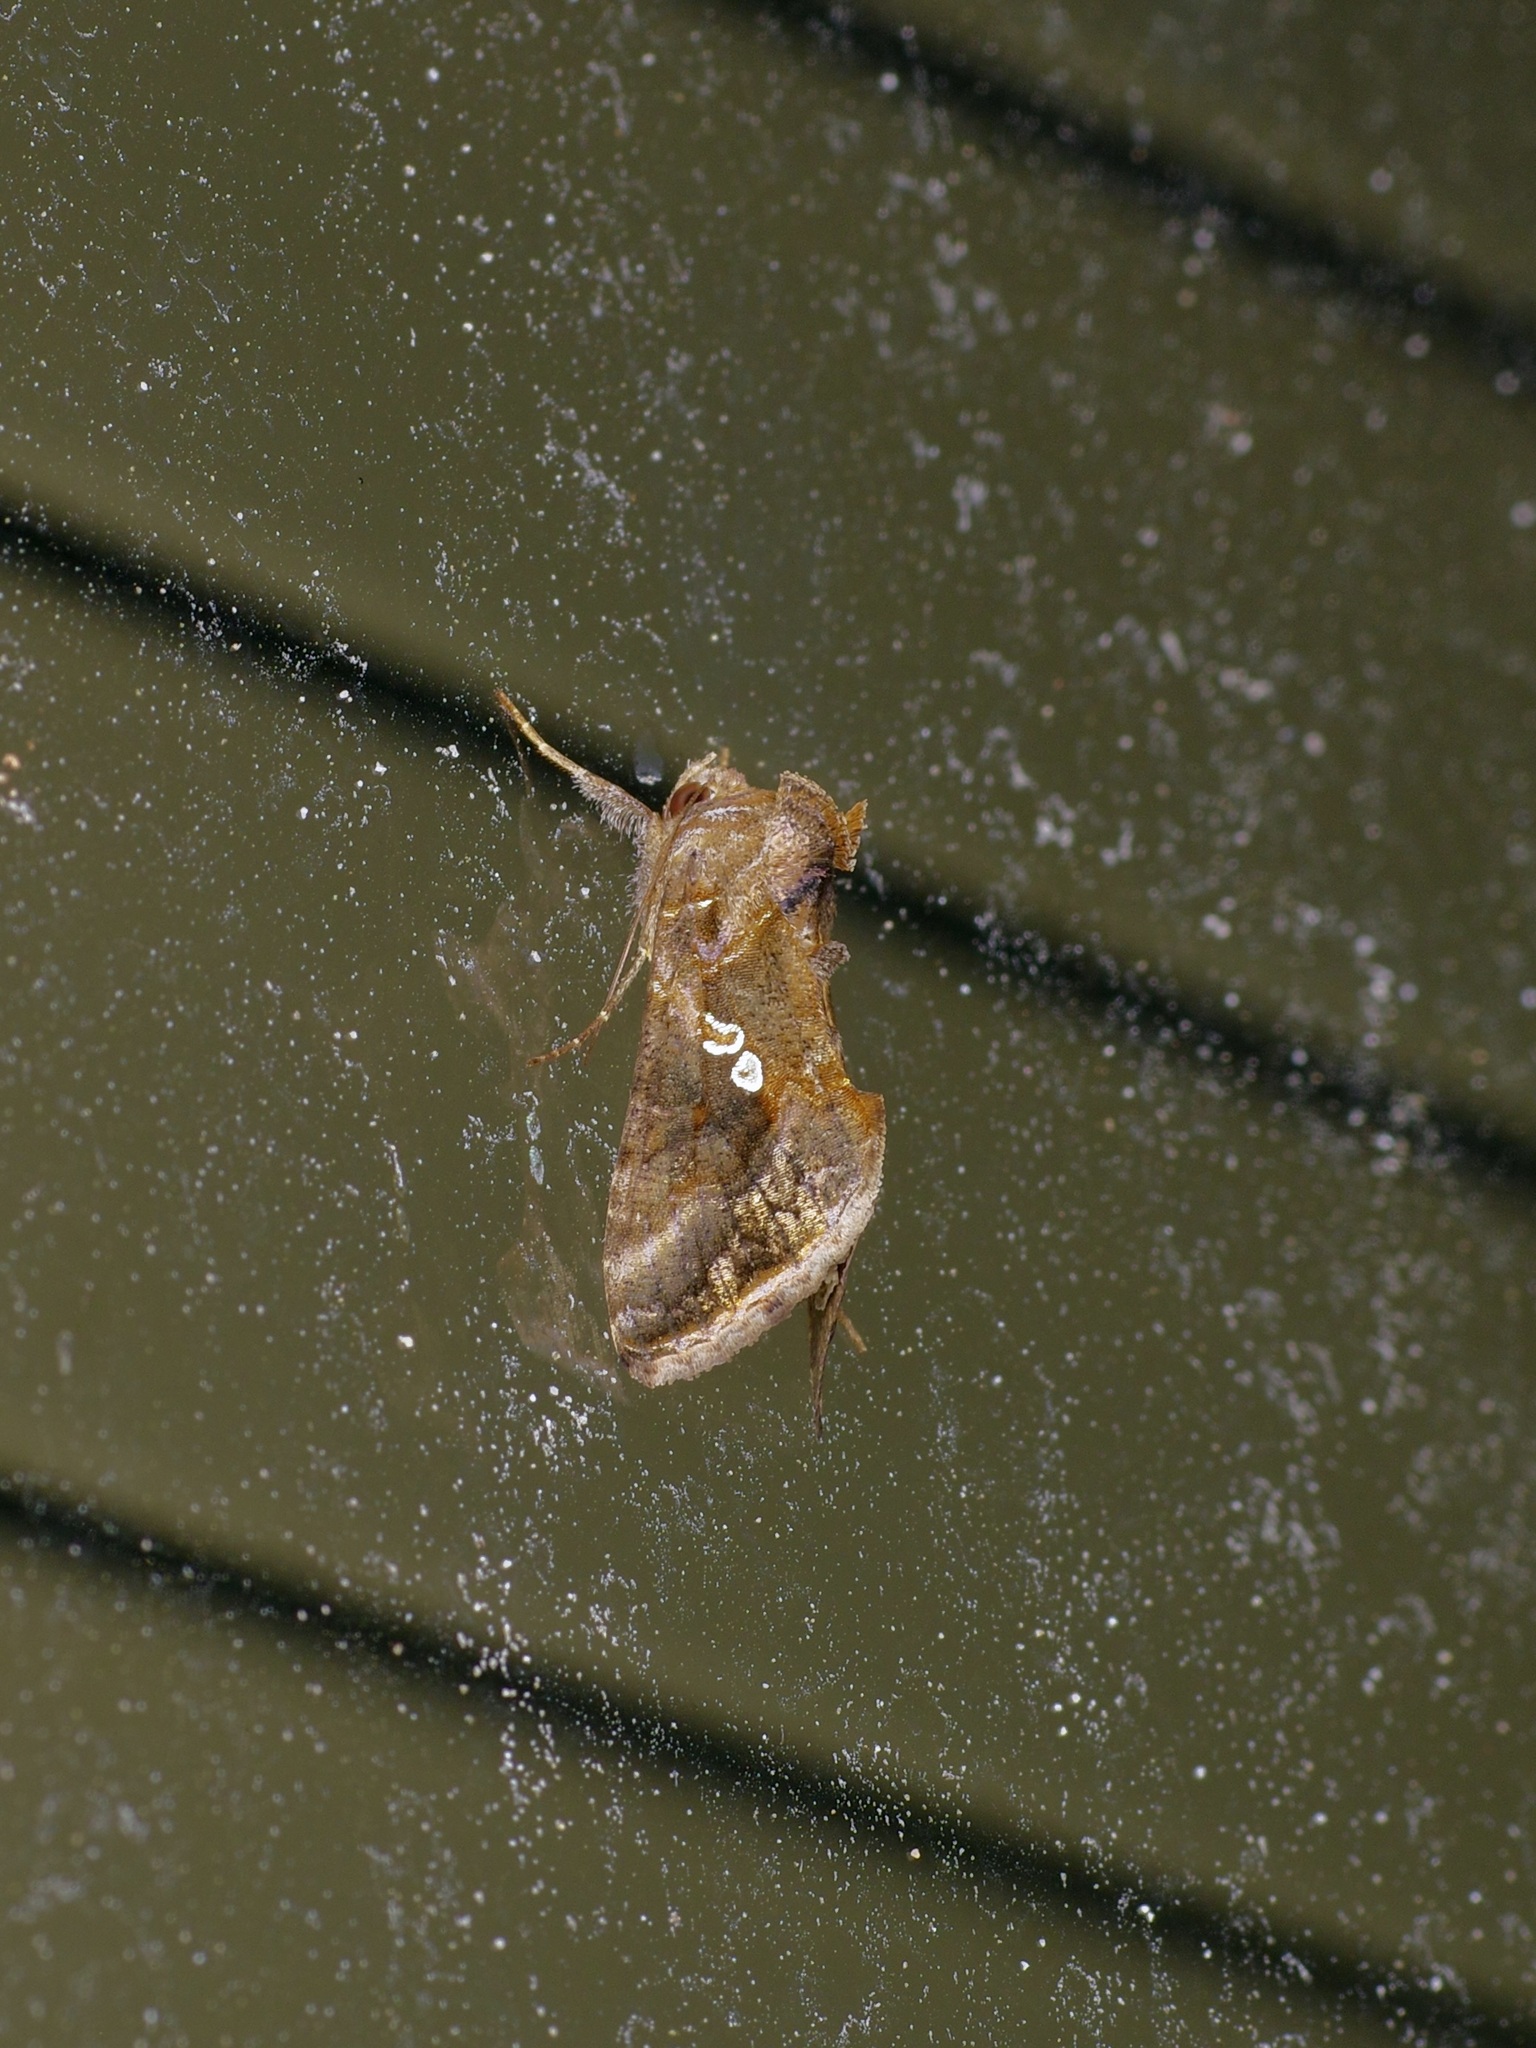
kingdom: Animalia
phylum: Arthropoda
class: Insecta
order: Lepidoptera
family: Noctuidae
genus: Chrysodeixis
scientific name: Chrysodeixis includens
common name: Cutworm moth
